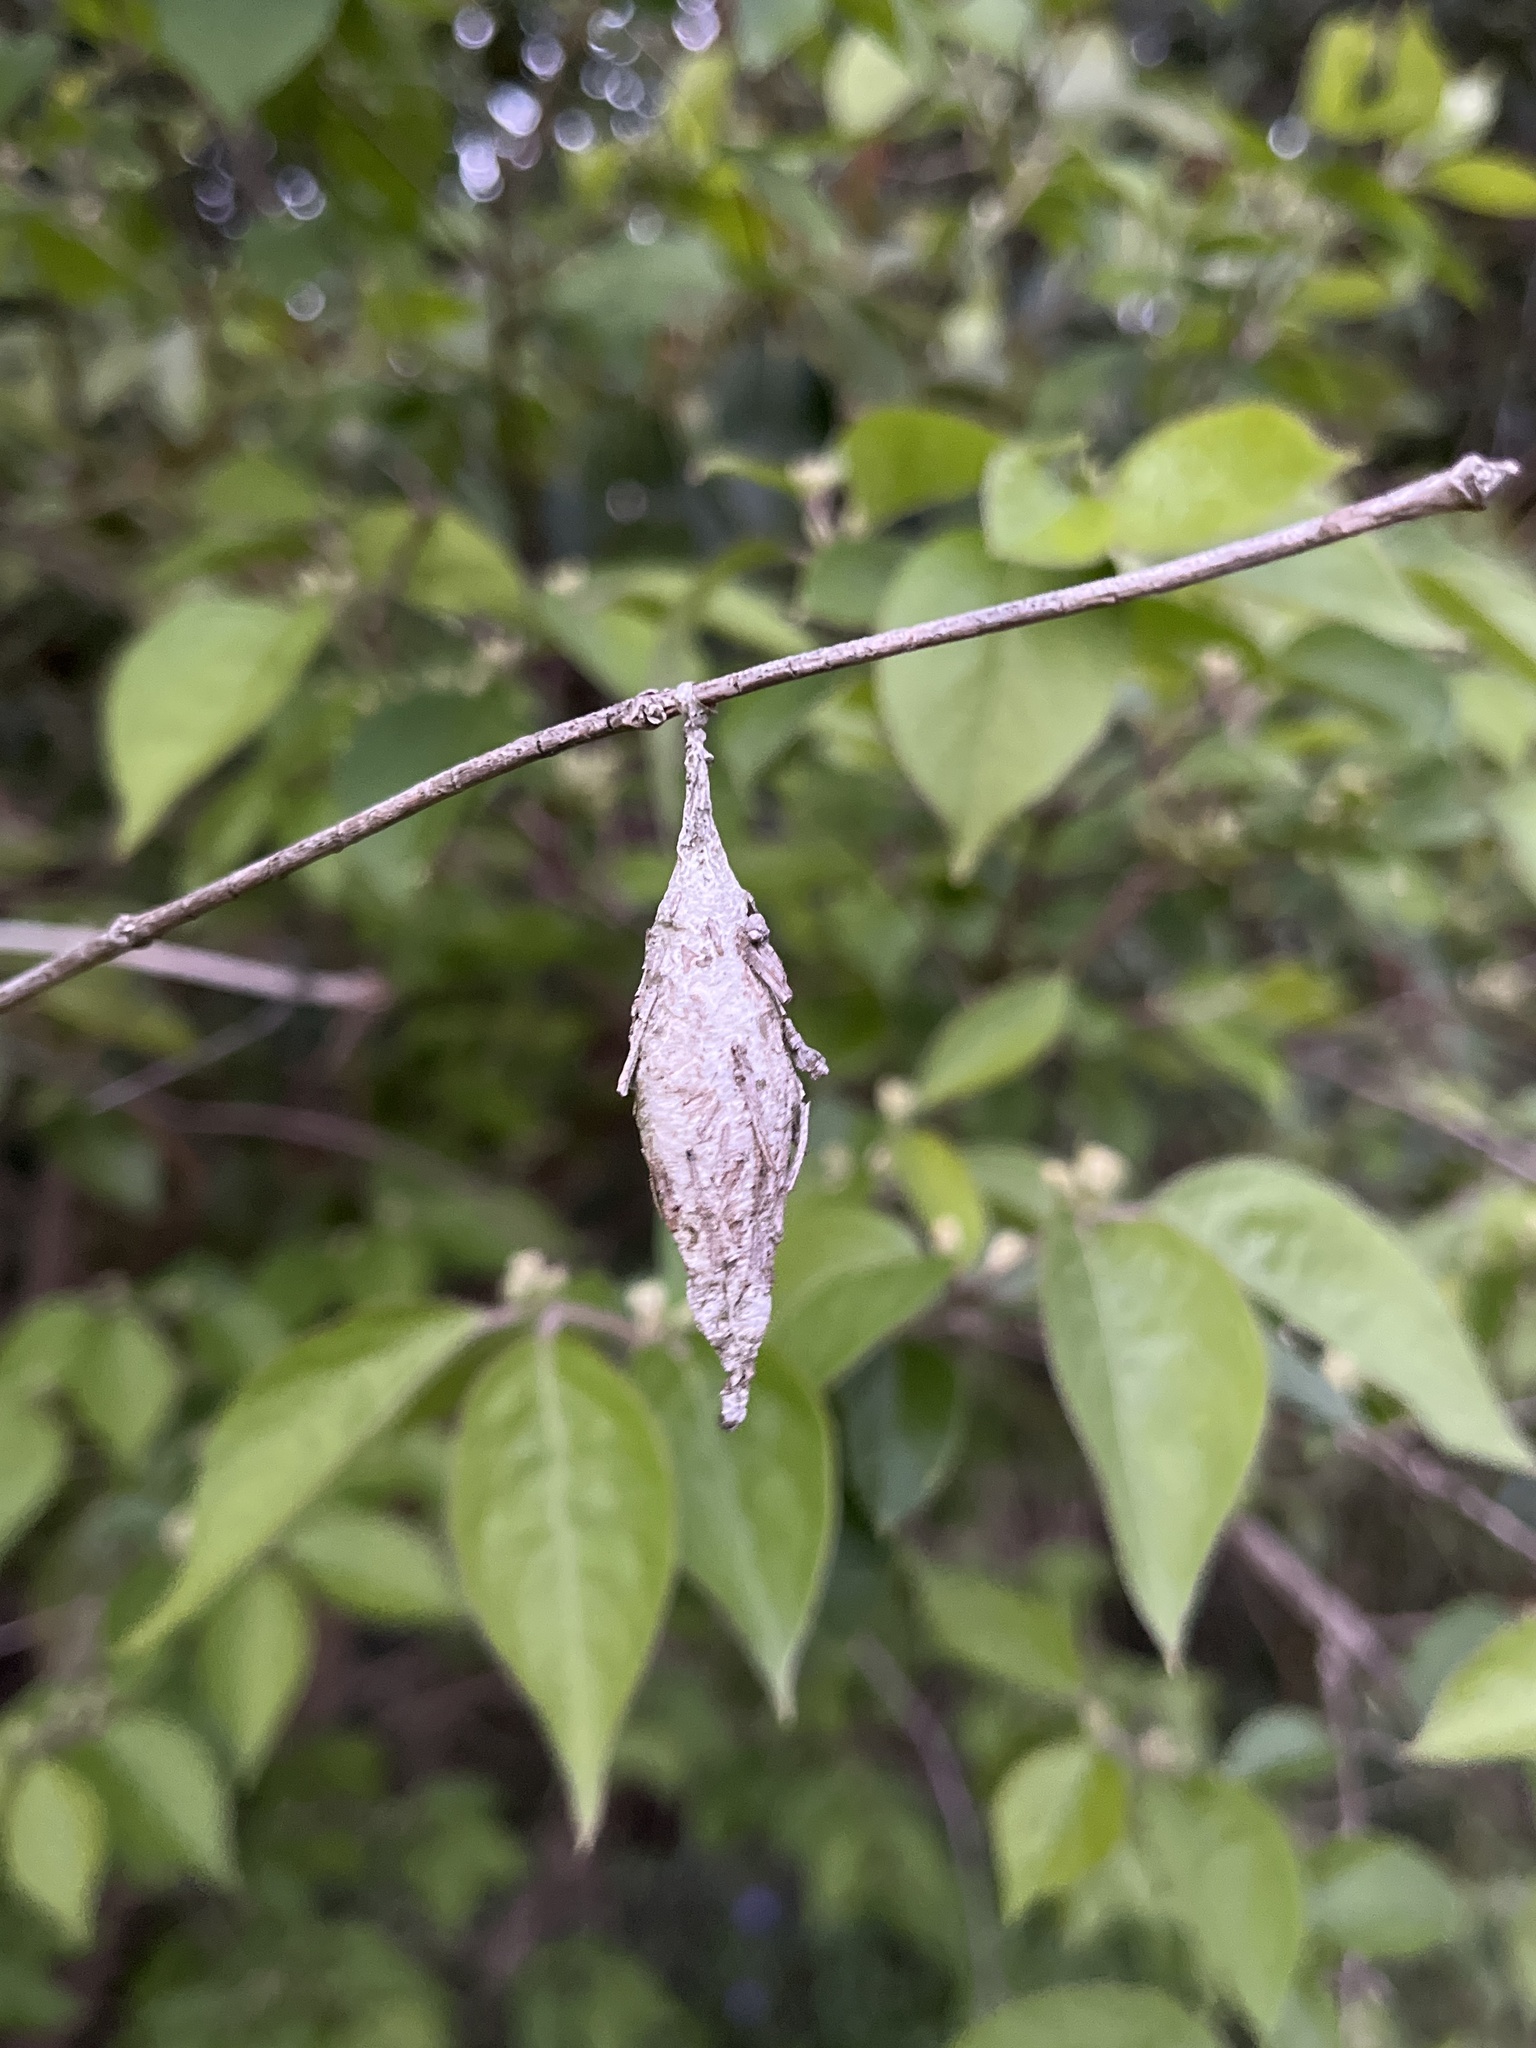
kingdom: Animalia
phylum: Arthropoda
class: Insecta
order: Lepidoptera
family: Psychidae
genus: Thyridopteryx
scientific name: Thyridopteryx ephemeraeformis
